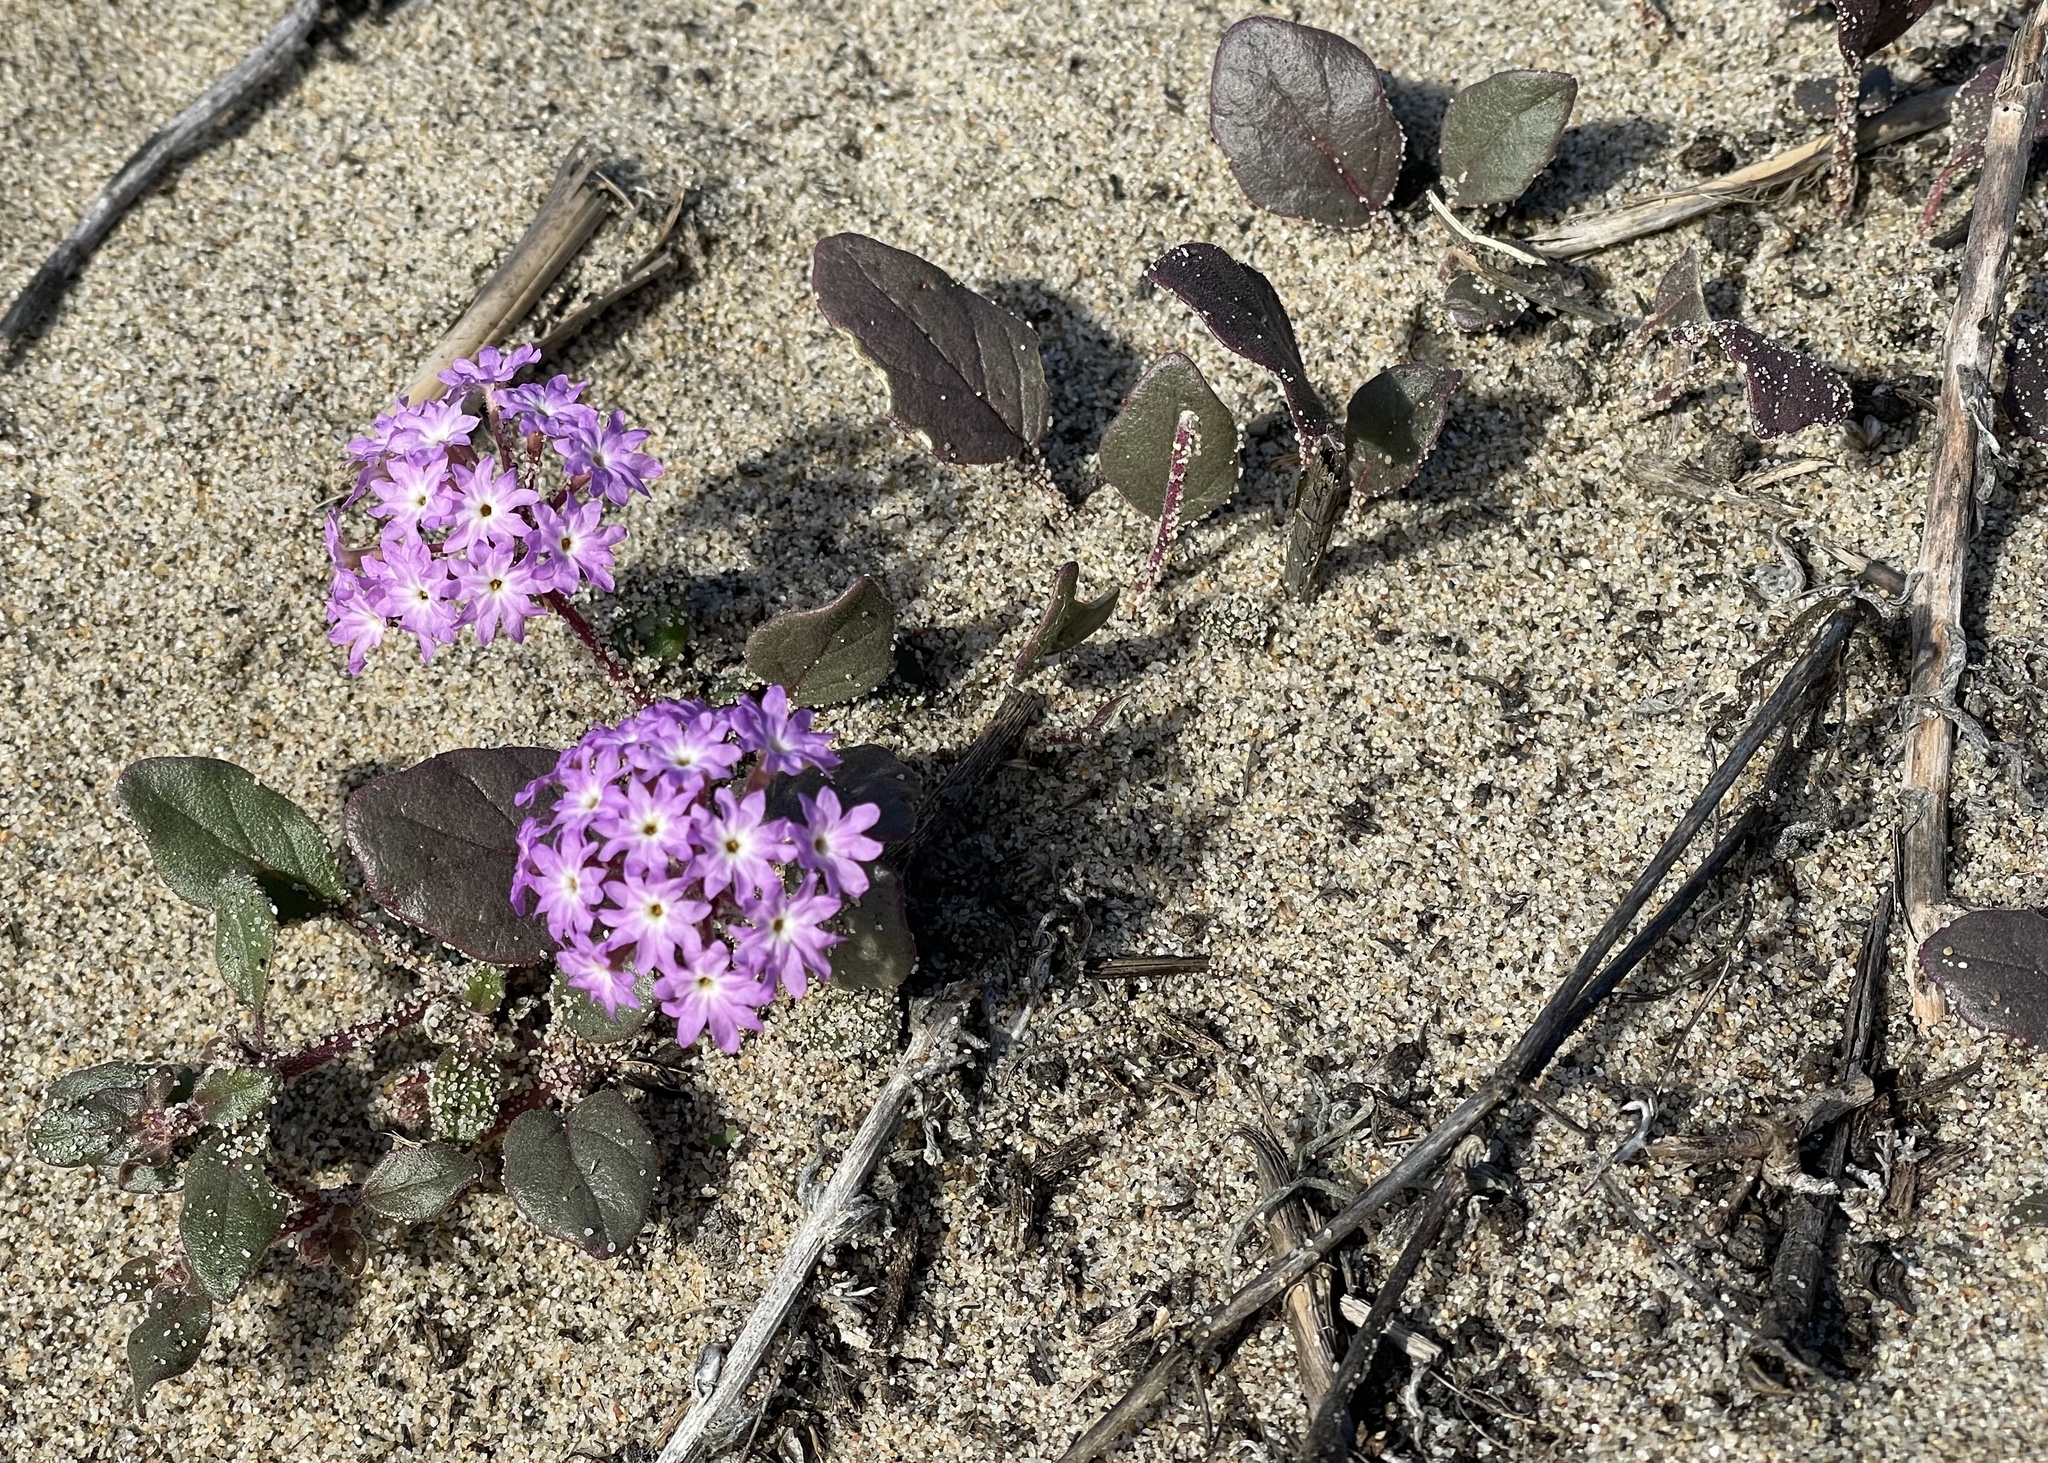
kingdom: Plantae
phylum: Tracheophyta
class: Magnoliopsida
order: Caryophyllales
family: Nyctaginaceae
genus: Abronia
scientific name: Abronia umbellata
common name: Sand-verbena
